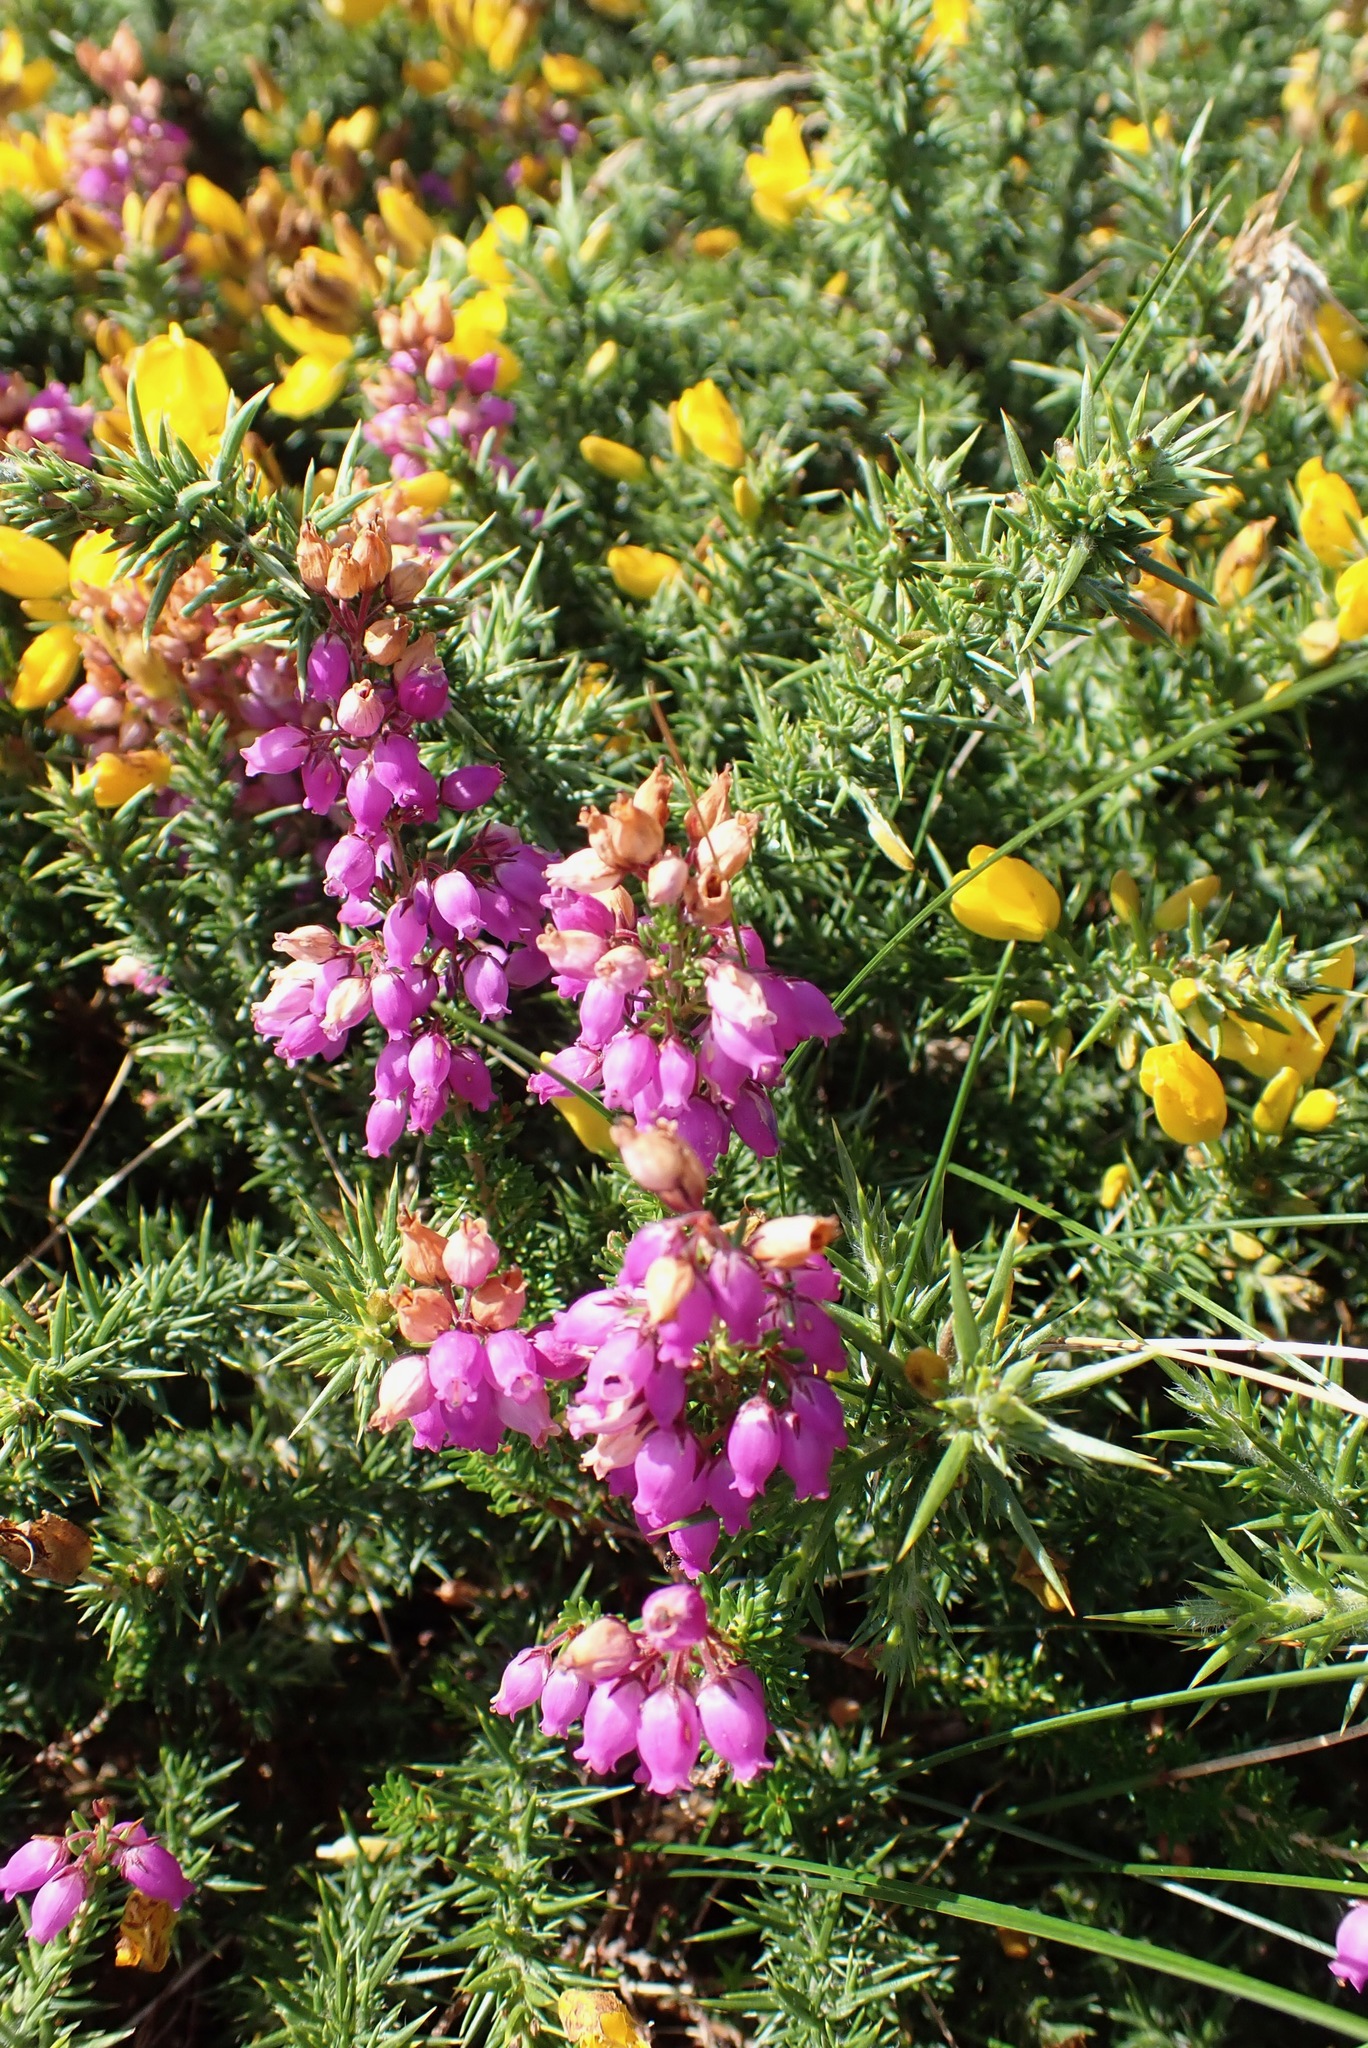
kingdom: Plantae
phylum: Tracheophyta
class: Magnoliopsida
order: Ericales
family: Ericaceae
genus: Erica
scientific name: Erica cinerea
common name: Bell heather
